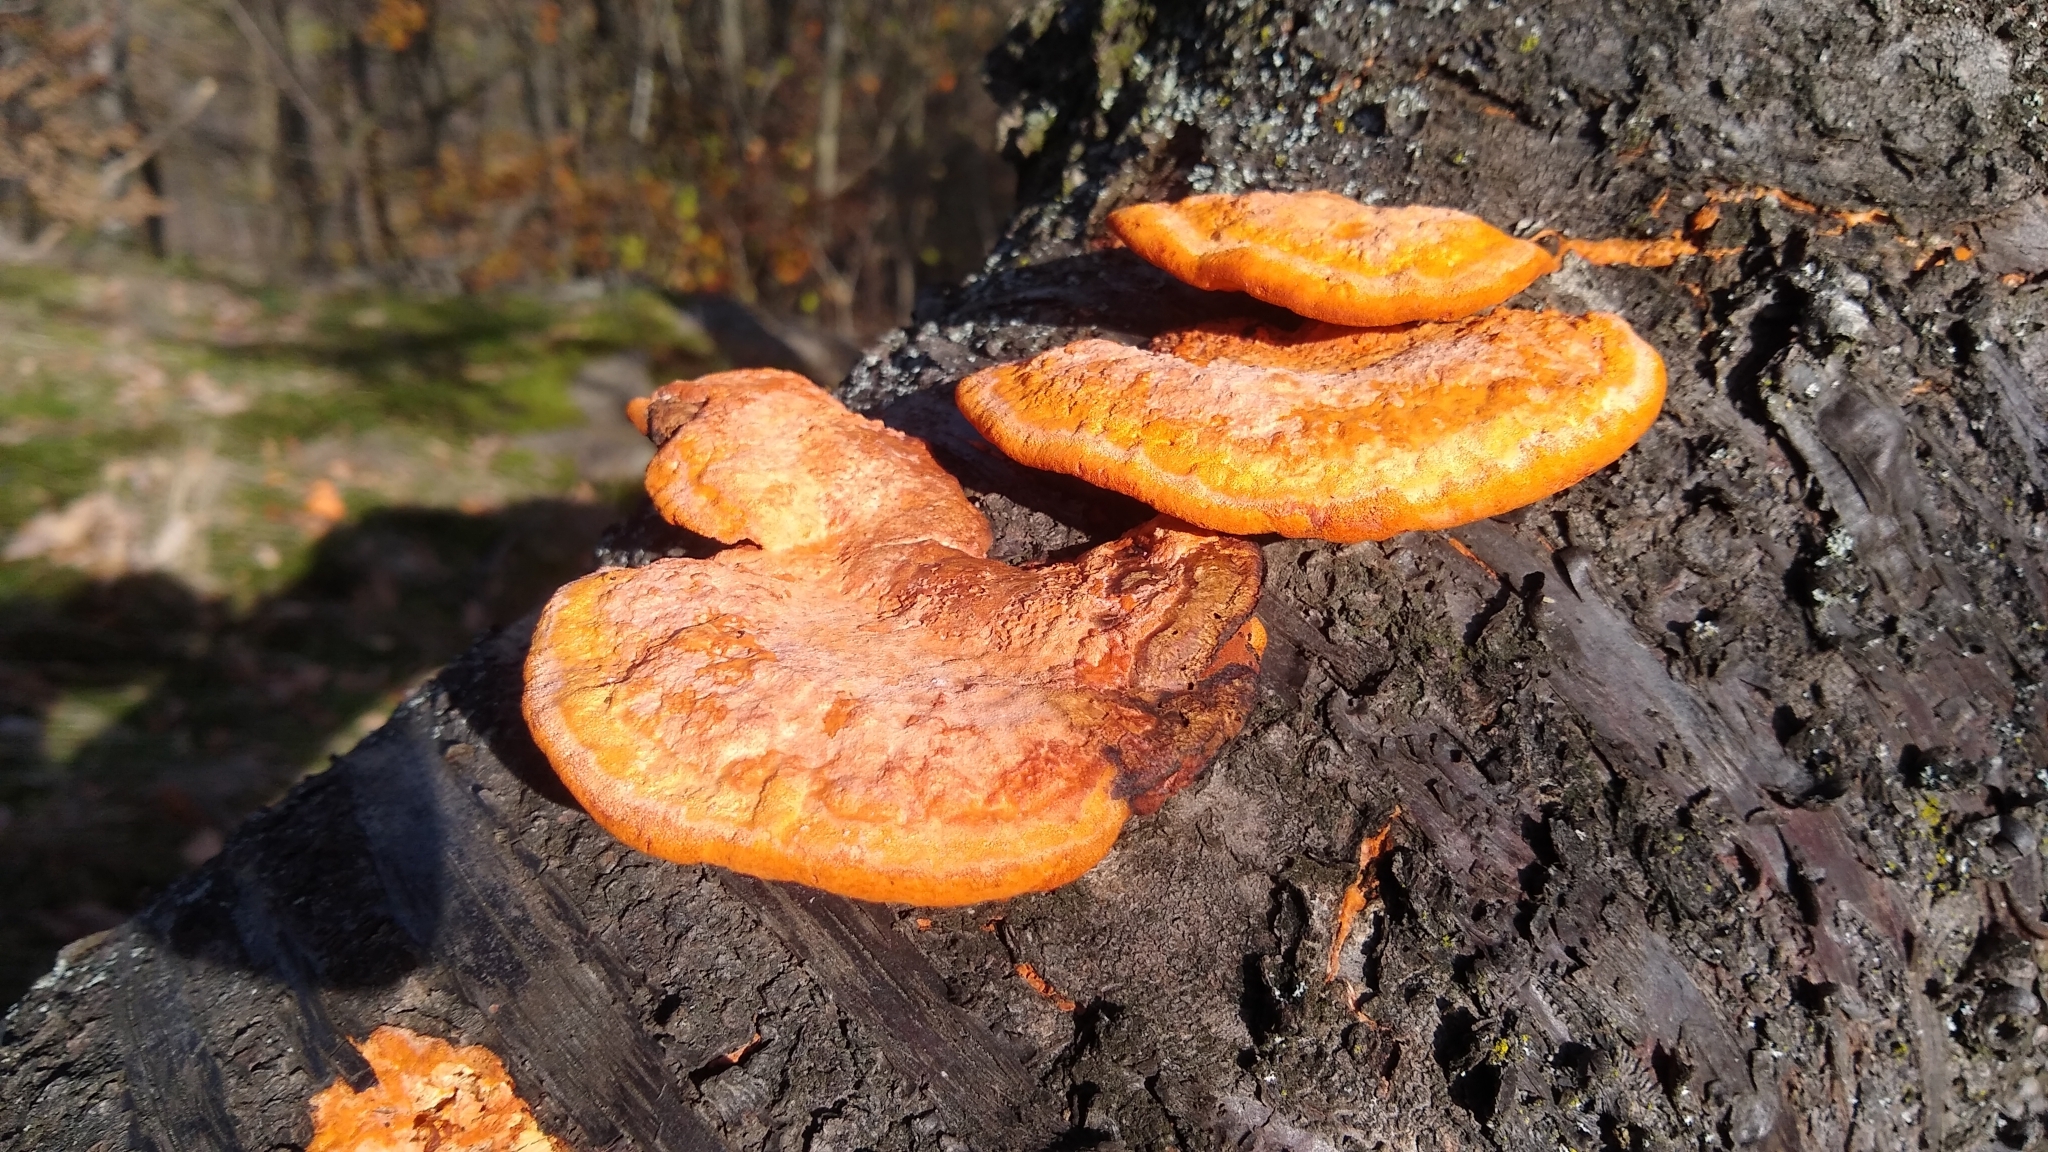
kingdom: Fungi
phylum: Basidiomycota
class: Agaricomycetes
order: Polyporales
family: Polyporaceae
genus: Trametes
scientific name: Trametes cinnabarina
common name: Northern cinnabar polypore
